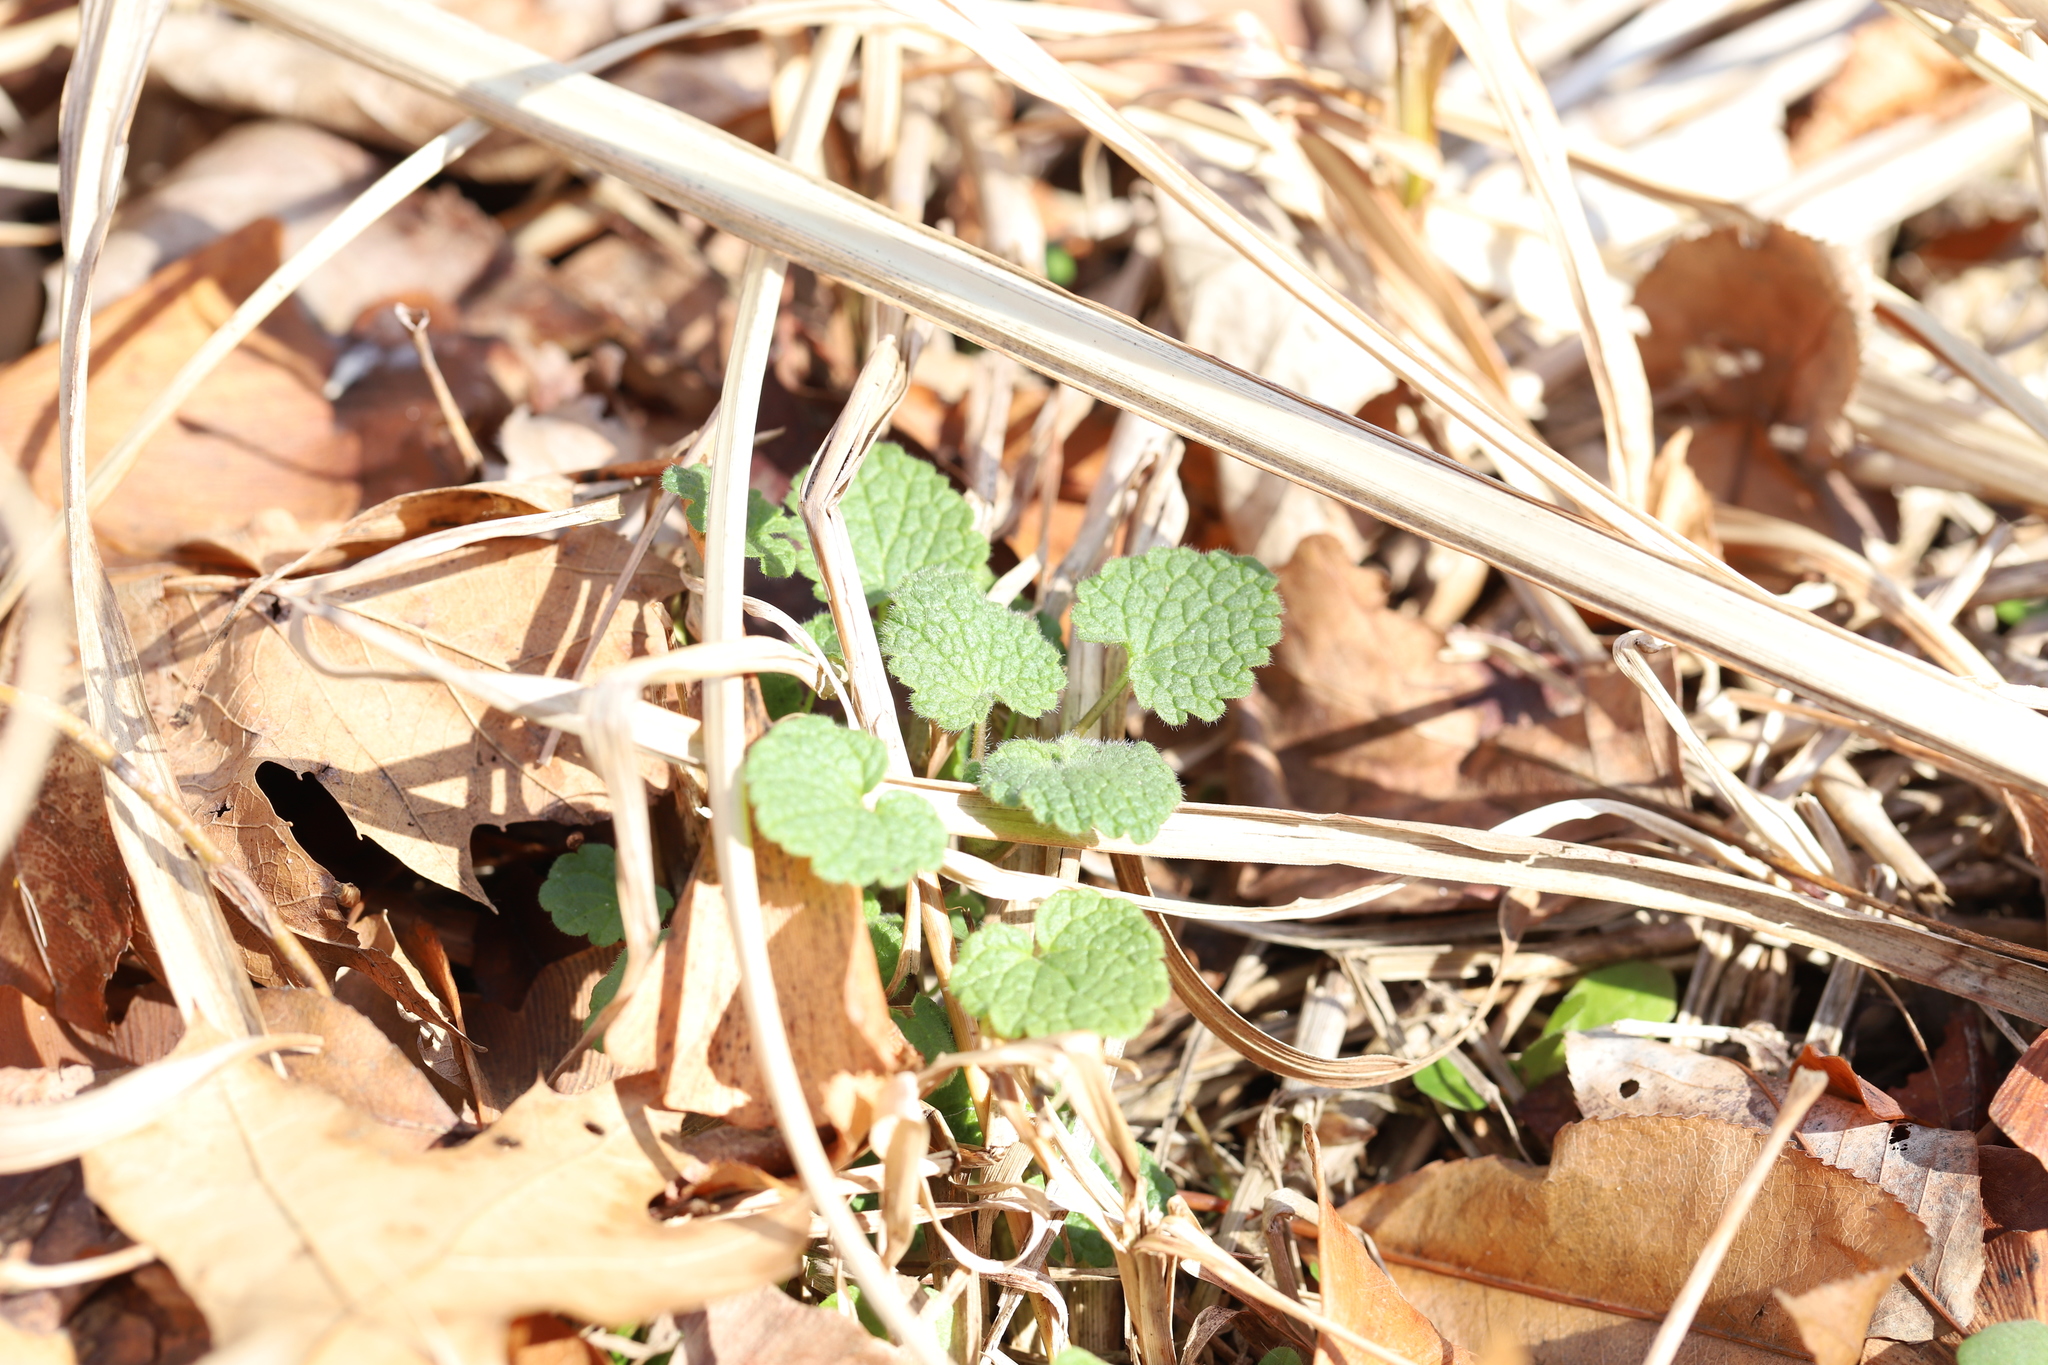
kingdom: Plantae
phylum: Tracheophyta
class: Magnoliopsida
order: Lamiales
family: Lamiaceae
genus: Lamium
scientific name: Lamium purpureum
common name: Red dead-nettle
